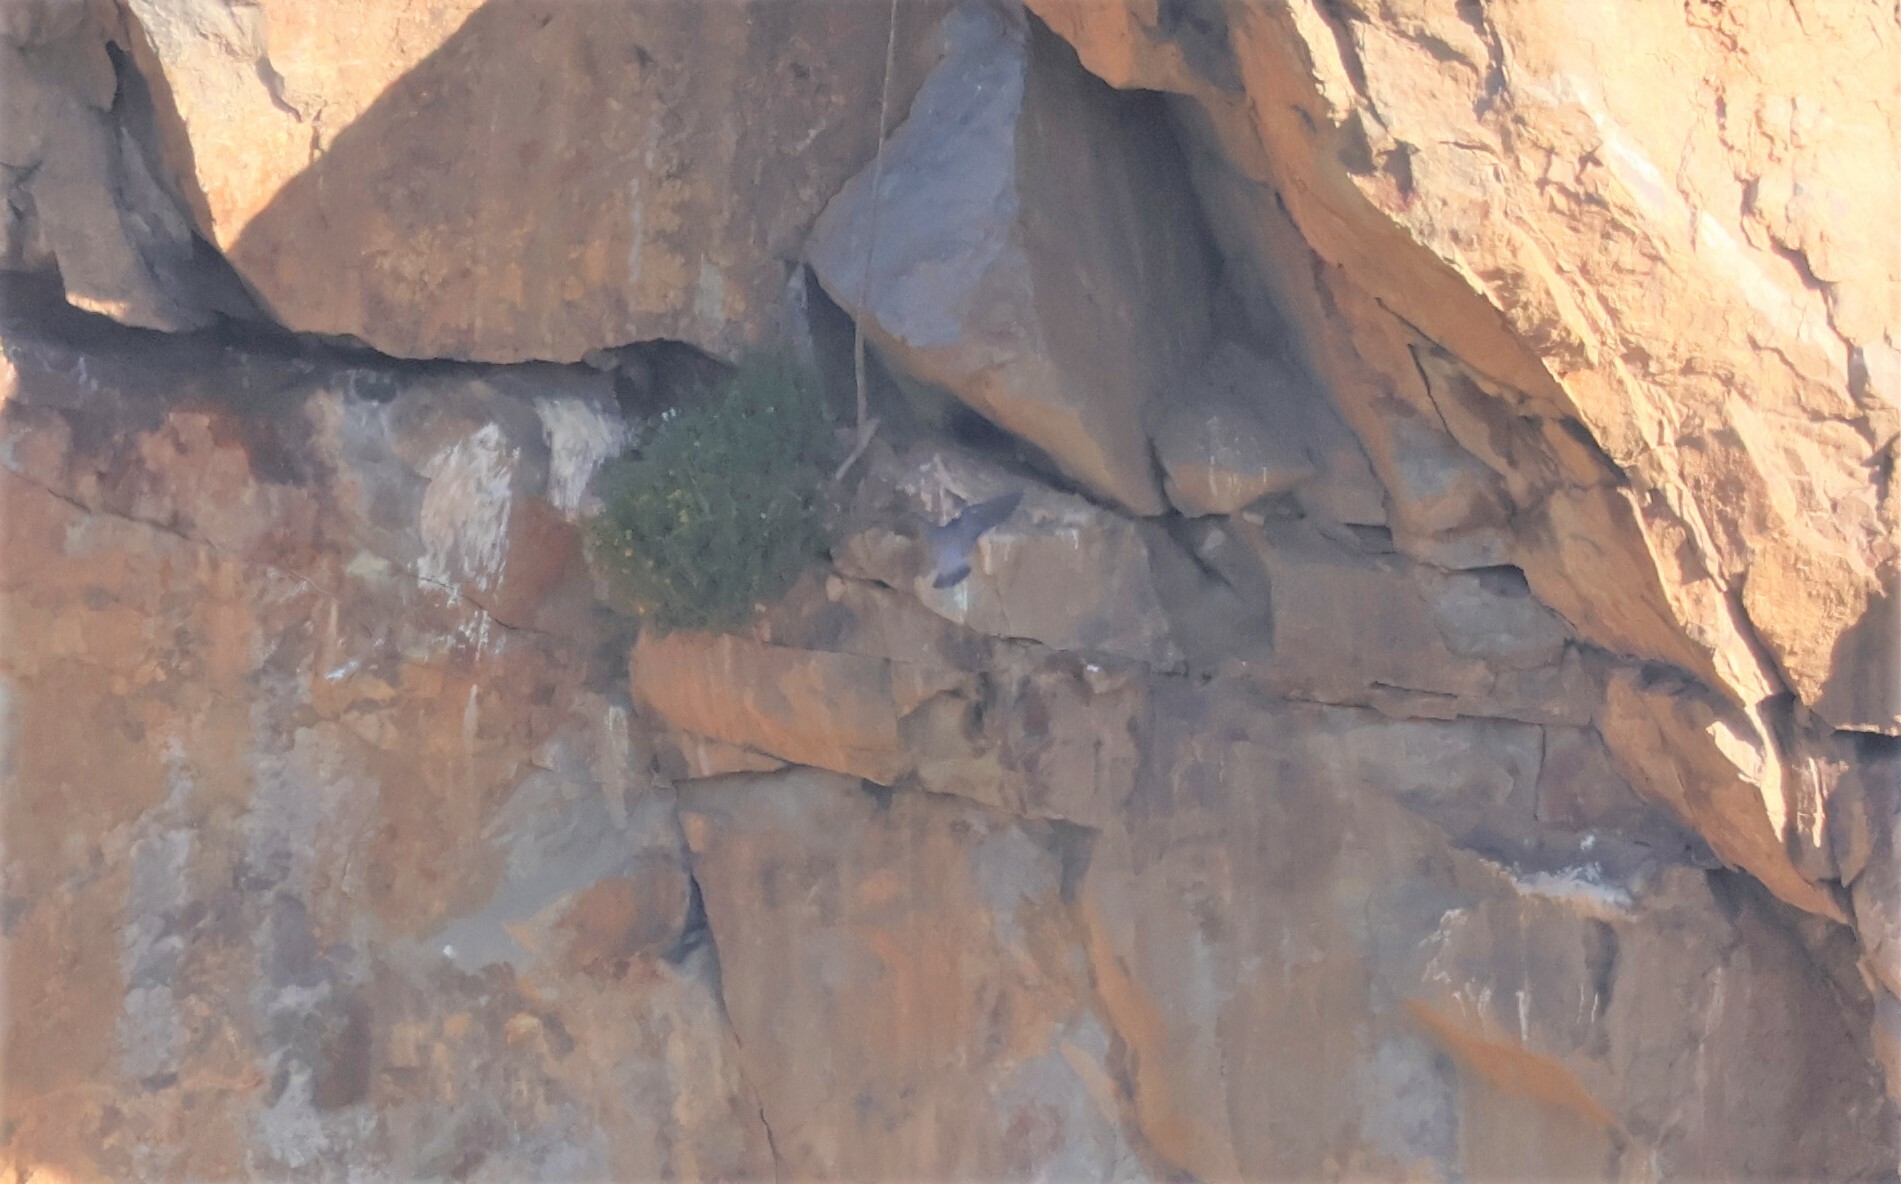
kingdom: Animalia
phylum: Chordata
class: Aves
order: Falconiformes
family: Falconidae
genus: Falco
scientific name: Falco peregrinus
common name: Peregrine falcon
